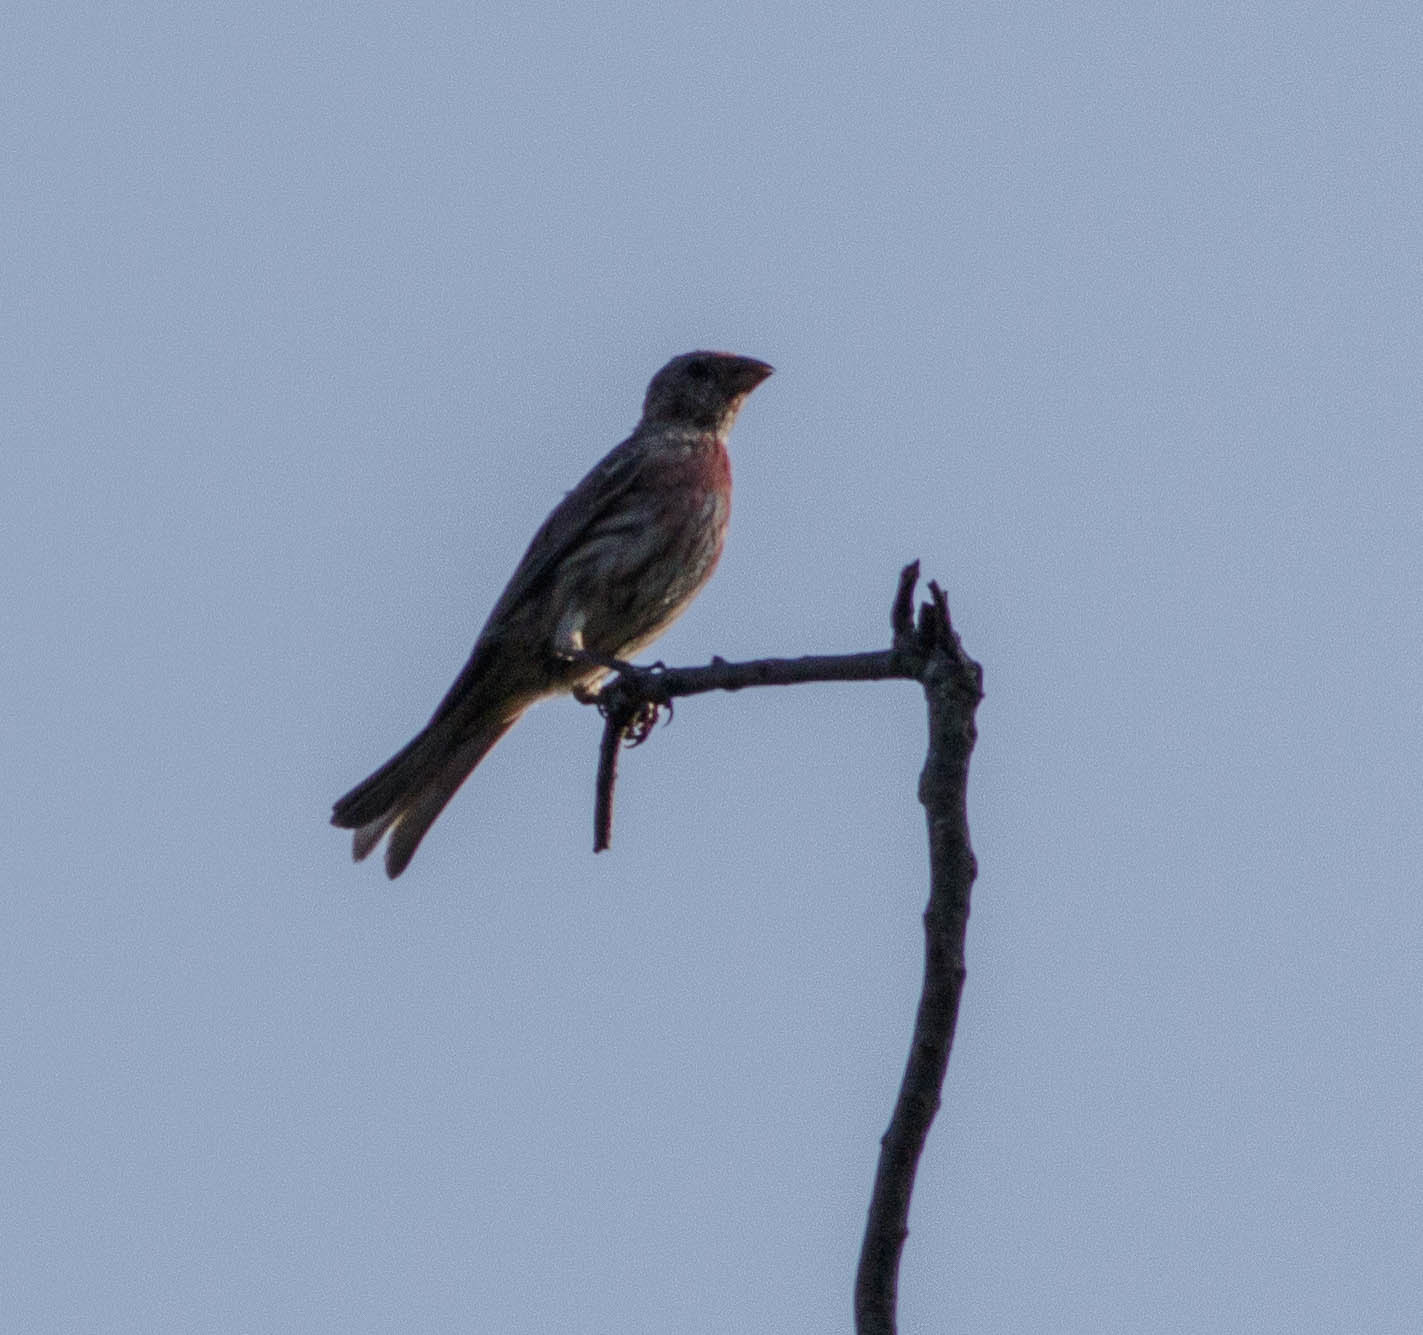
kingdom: Animalia
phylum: Chordata
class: Aves
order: Passeriformes
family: Fringillidae
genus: Haemorhous
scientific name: Haemorhous mexicanus
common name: House finch
